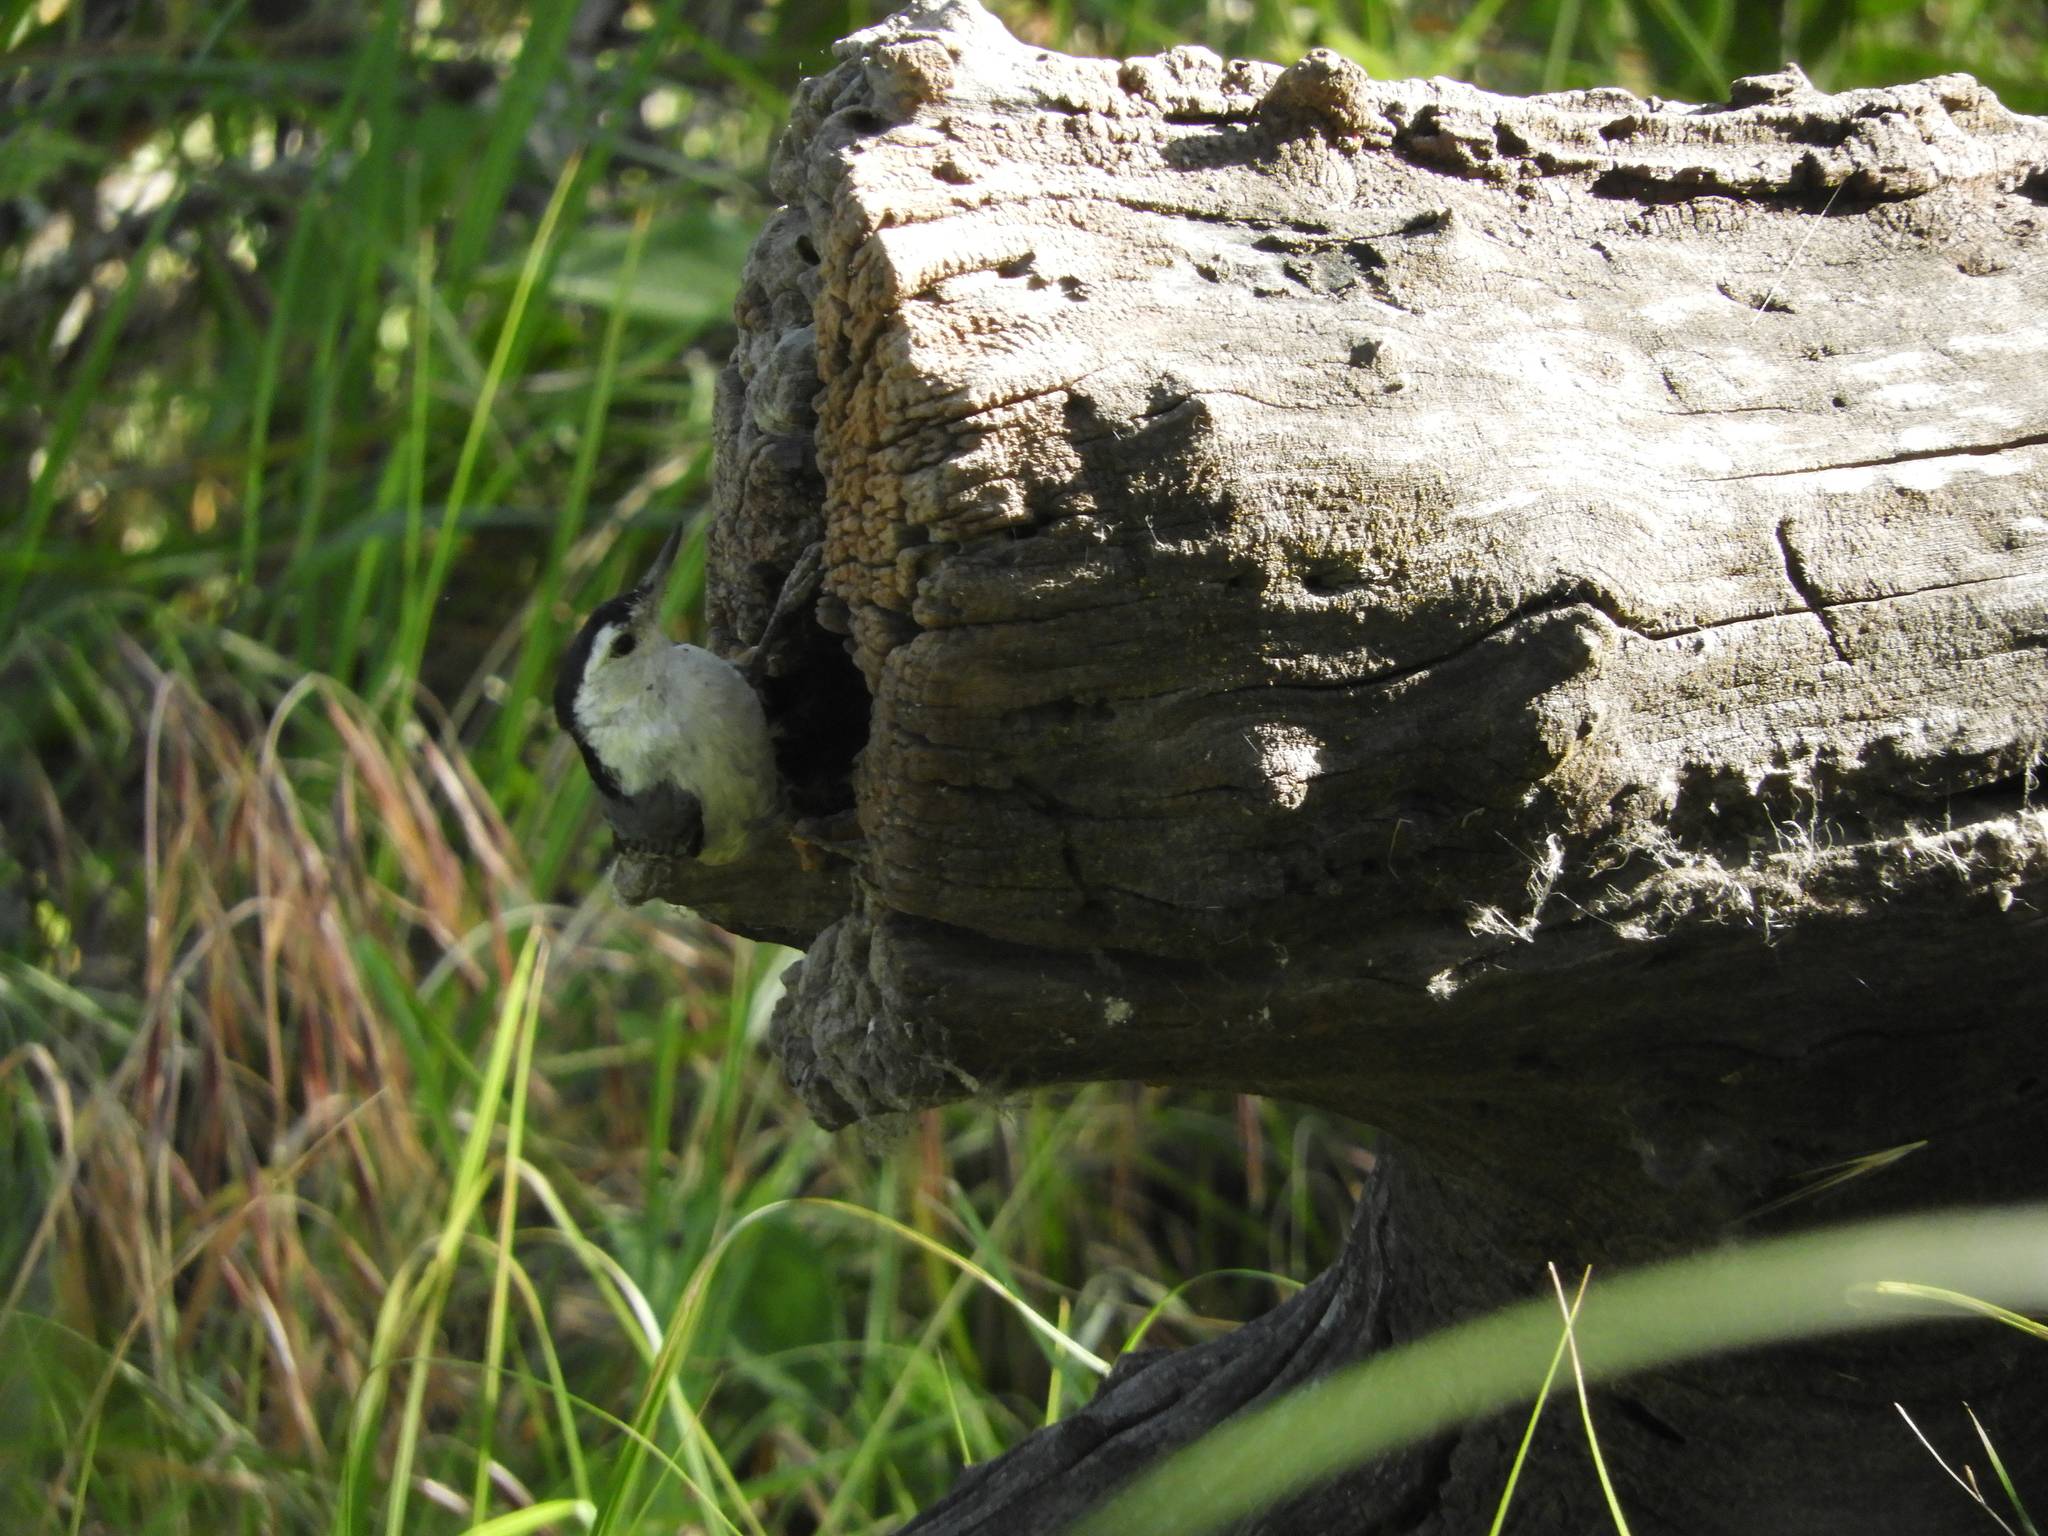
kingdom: Animalia
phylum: Chordata
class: Aves
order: Passeriformes
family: Sittidae
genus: Sitta
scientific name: Sitta carolinensis
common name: White-breasted nuthatch
